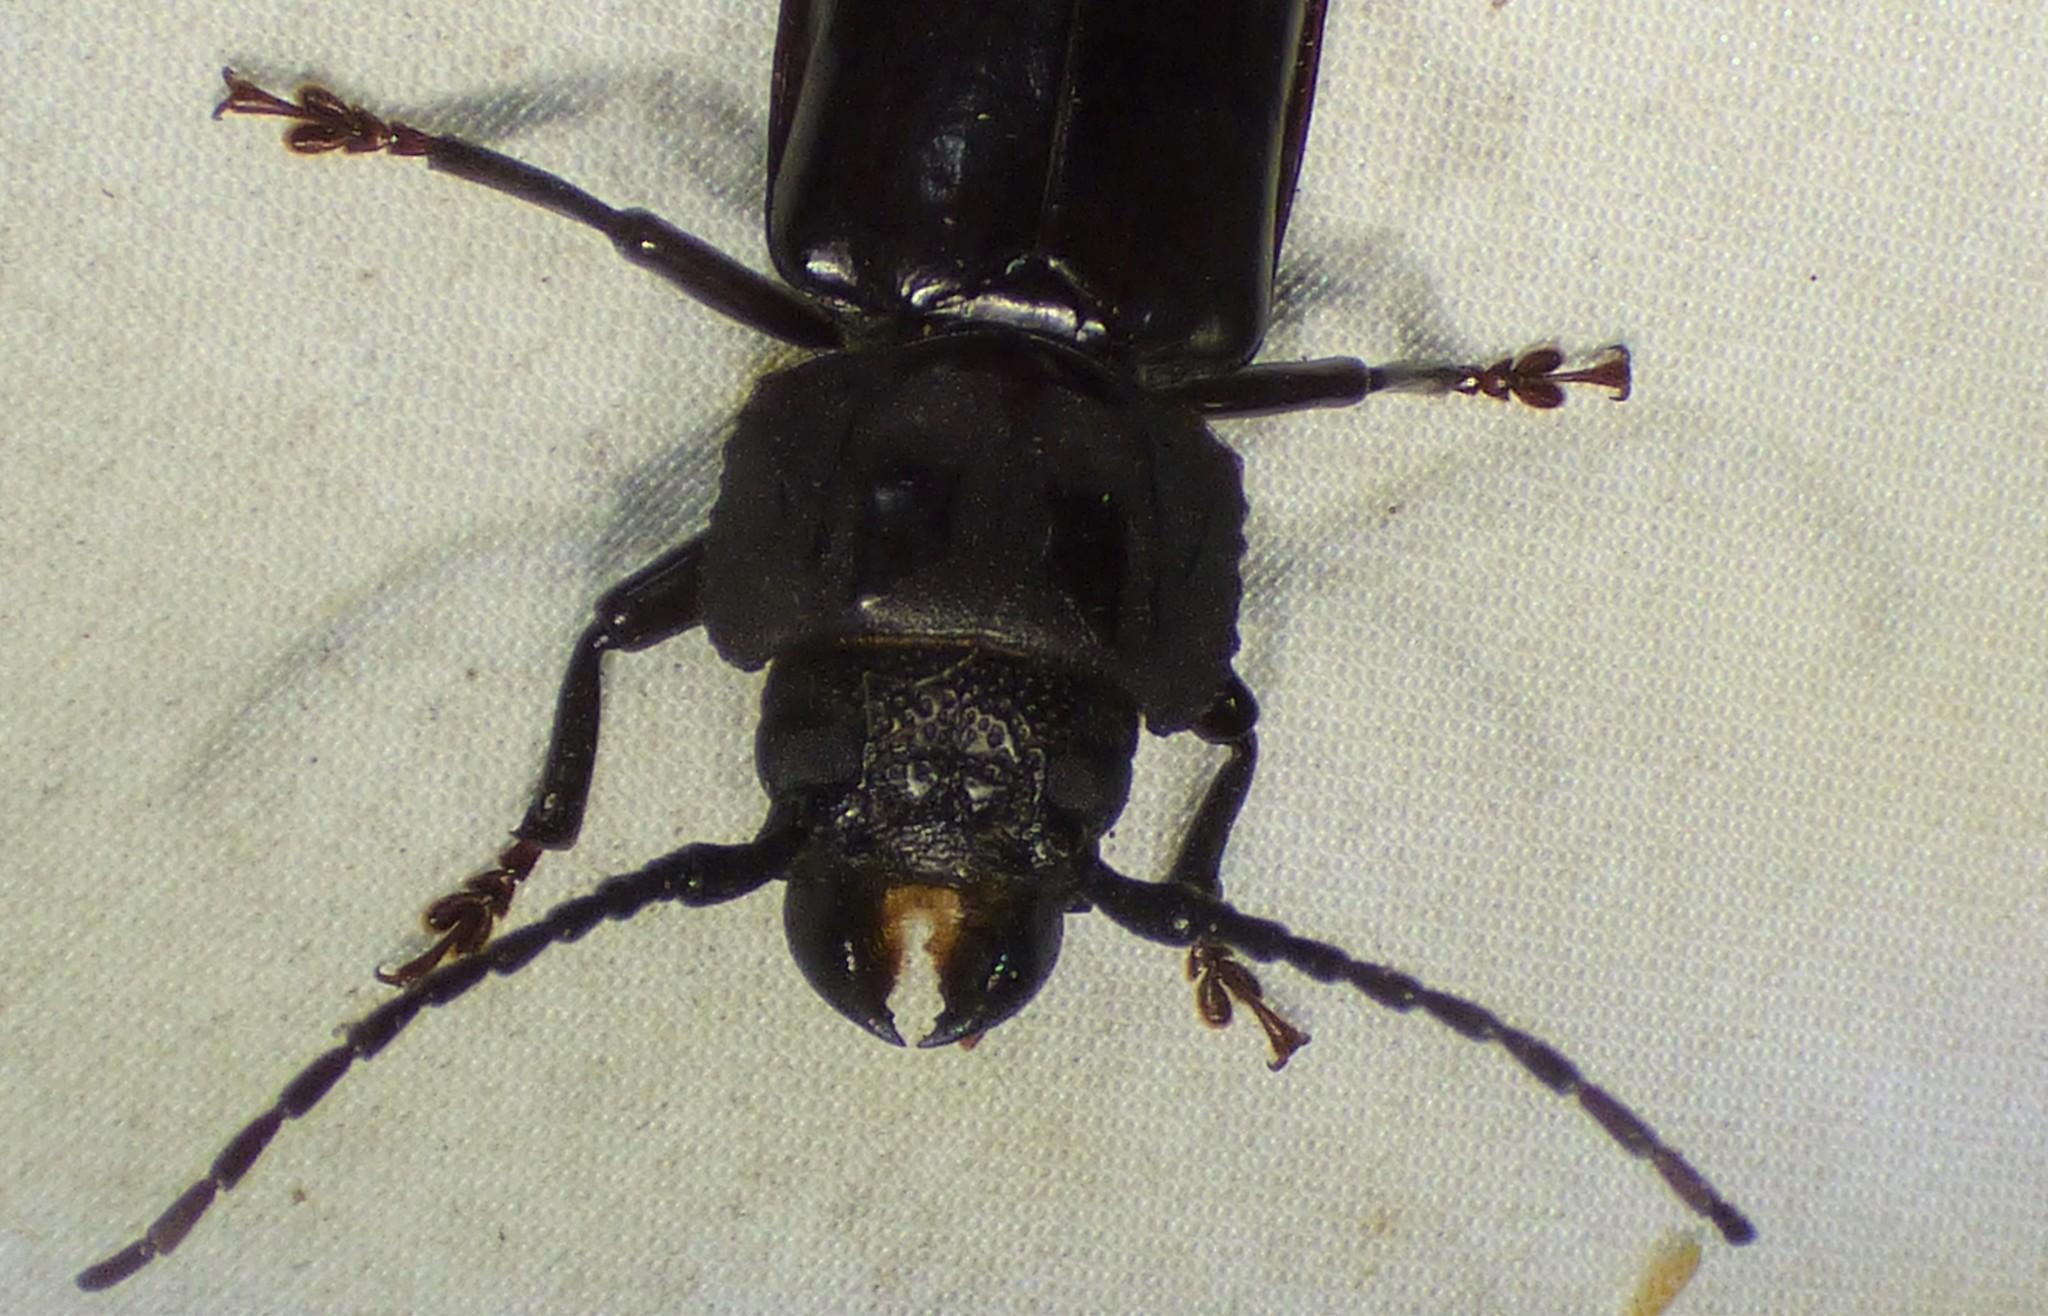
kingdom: Animalia
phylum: Arthropoda
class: Insecta
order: Coleoptera
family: Cerambycidae
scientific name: Cerambycidae
